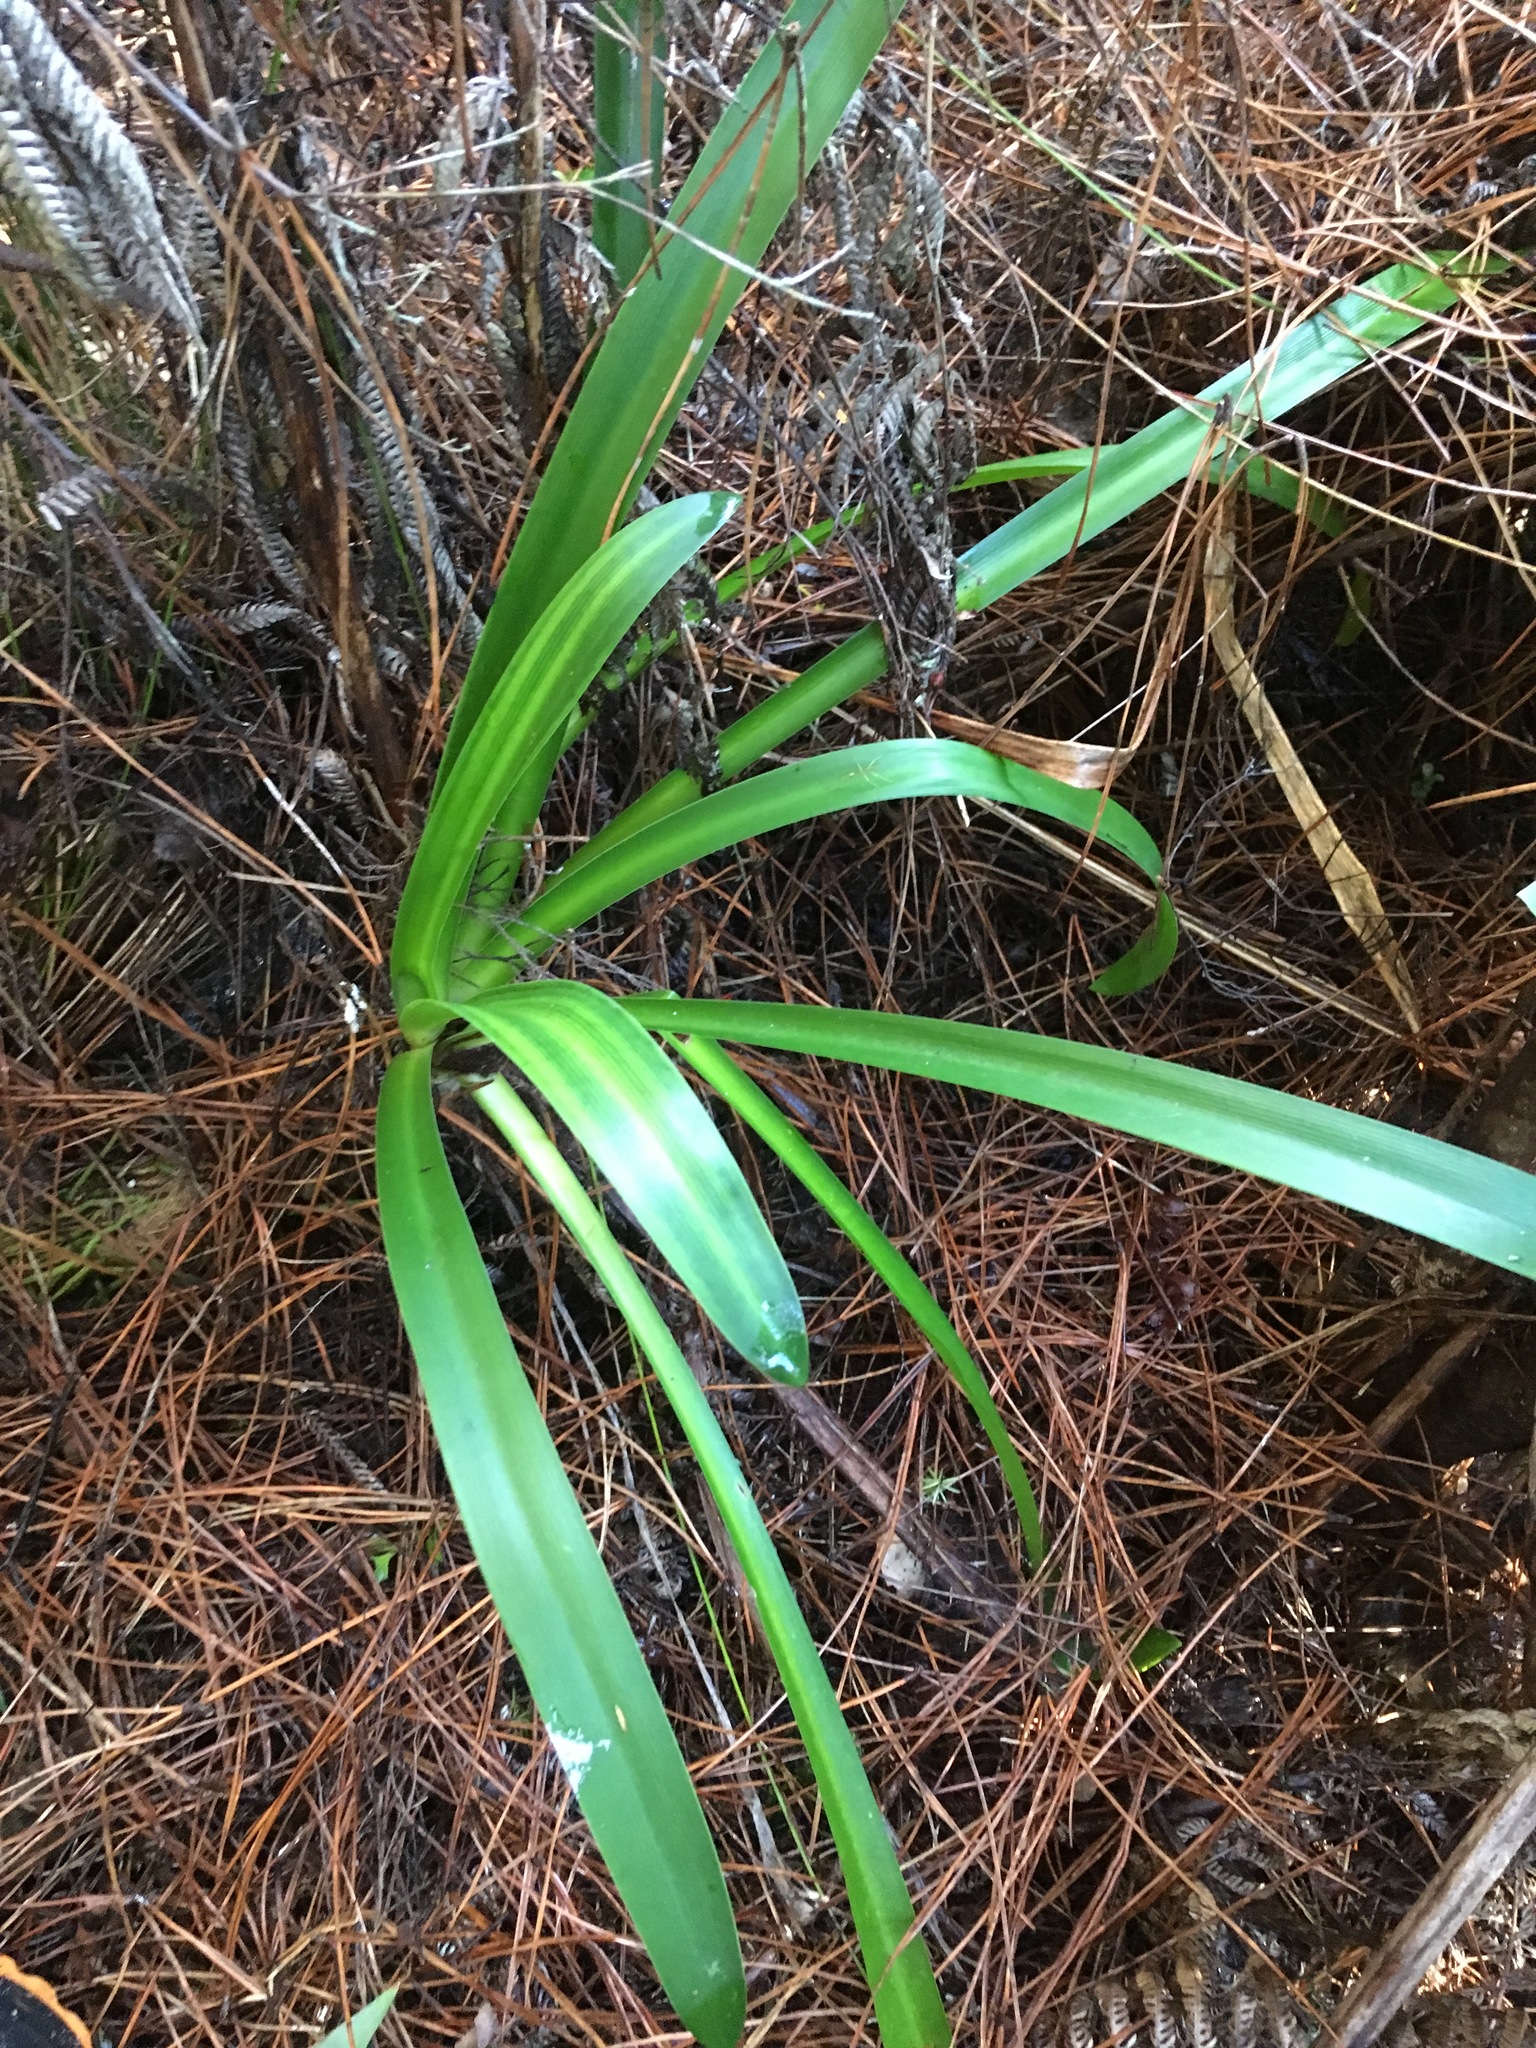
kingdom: Plantae
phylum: Tracheophyta
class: Liliopsida
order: Asparagales
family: Amaryllidaceae
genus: Agapanthus
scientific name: Agapanthus praecox
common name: African-lily
